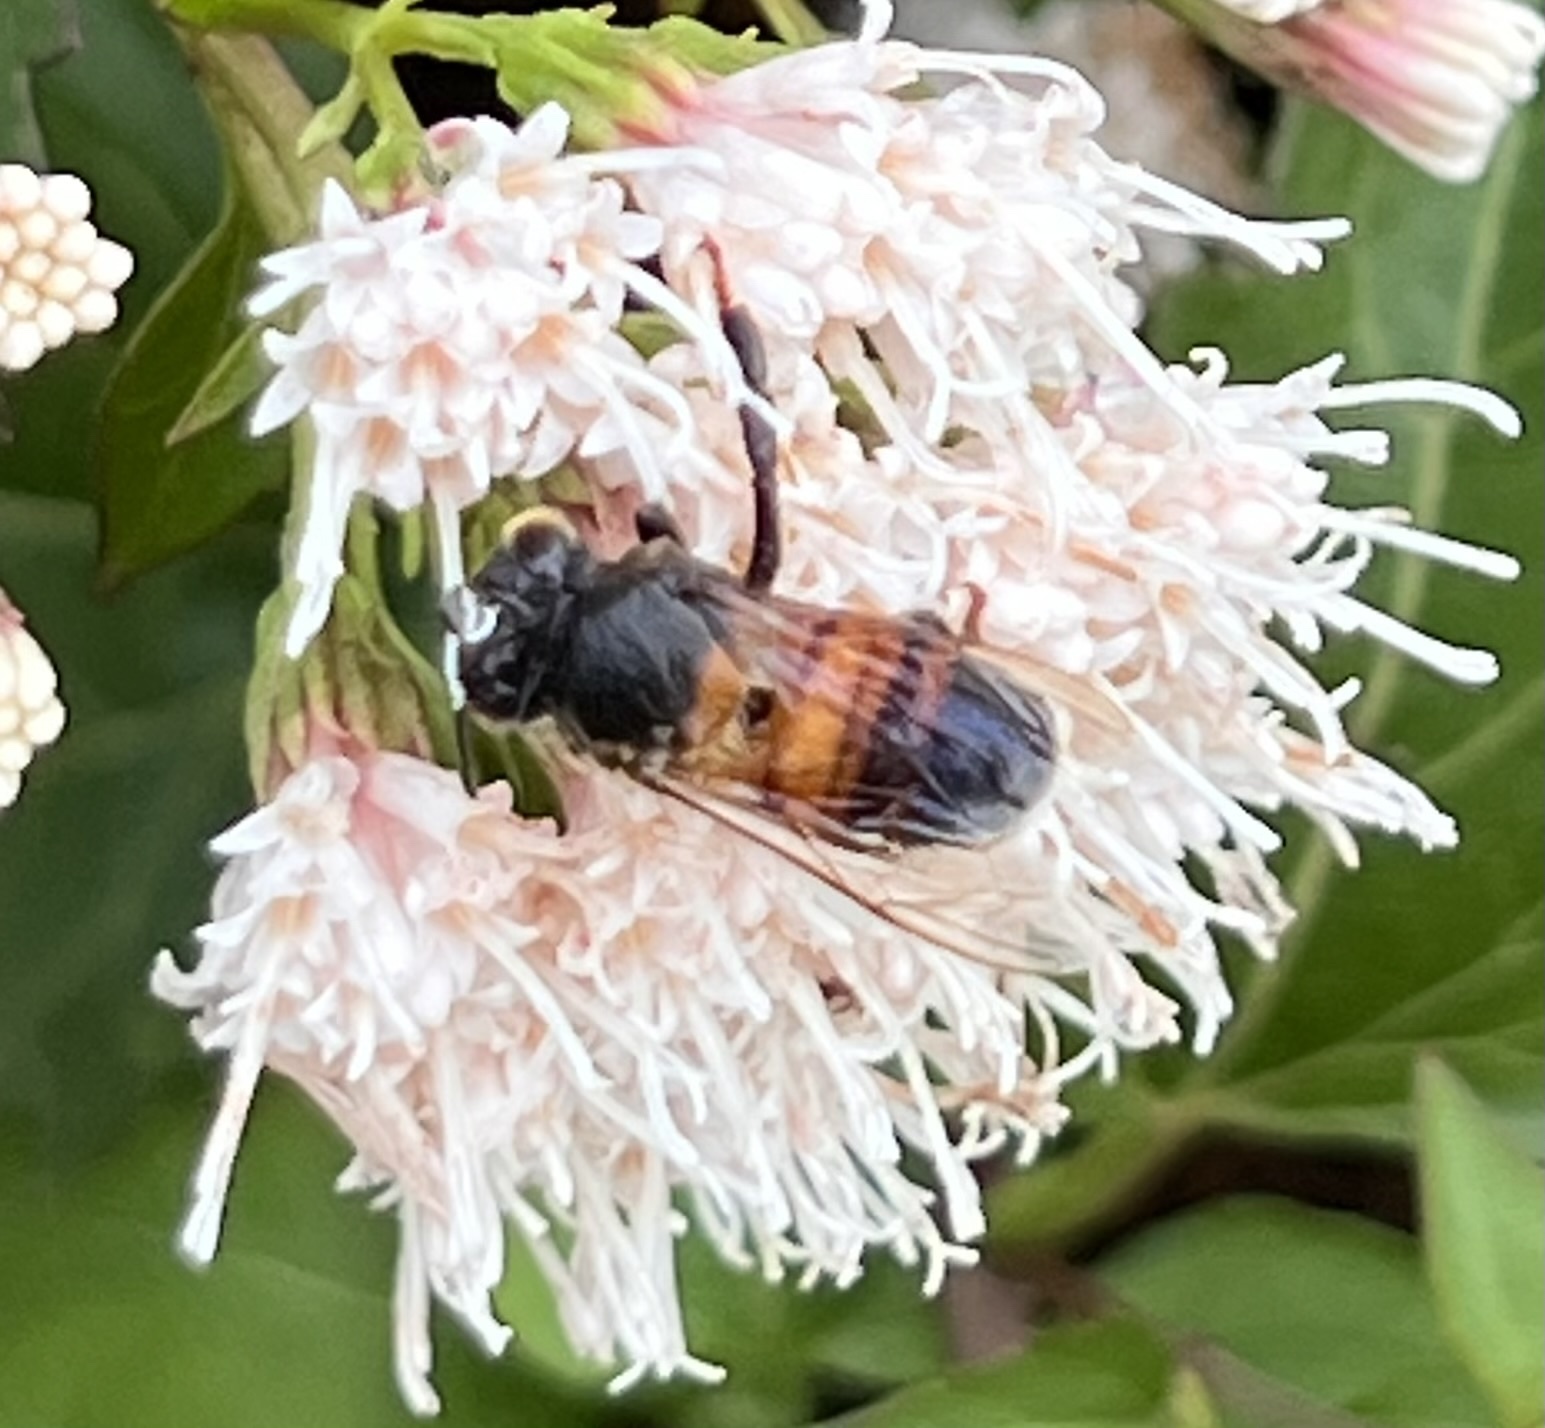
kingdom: Animalia
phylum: Arthropoda
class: Insecta
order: Hymenoptera
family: Apidae
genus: Apis
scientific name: Apis mellifera
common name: Honey bee
